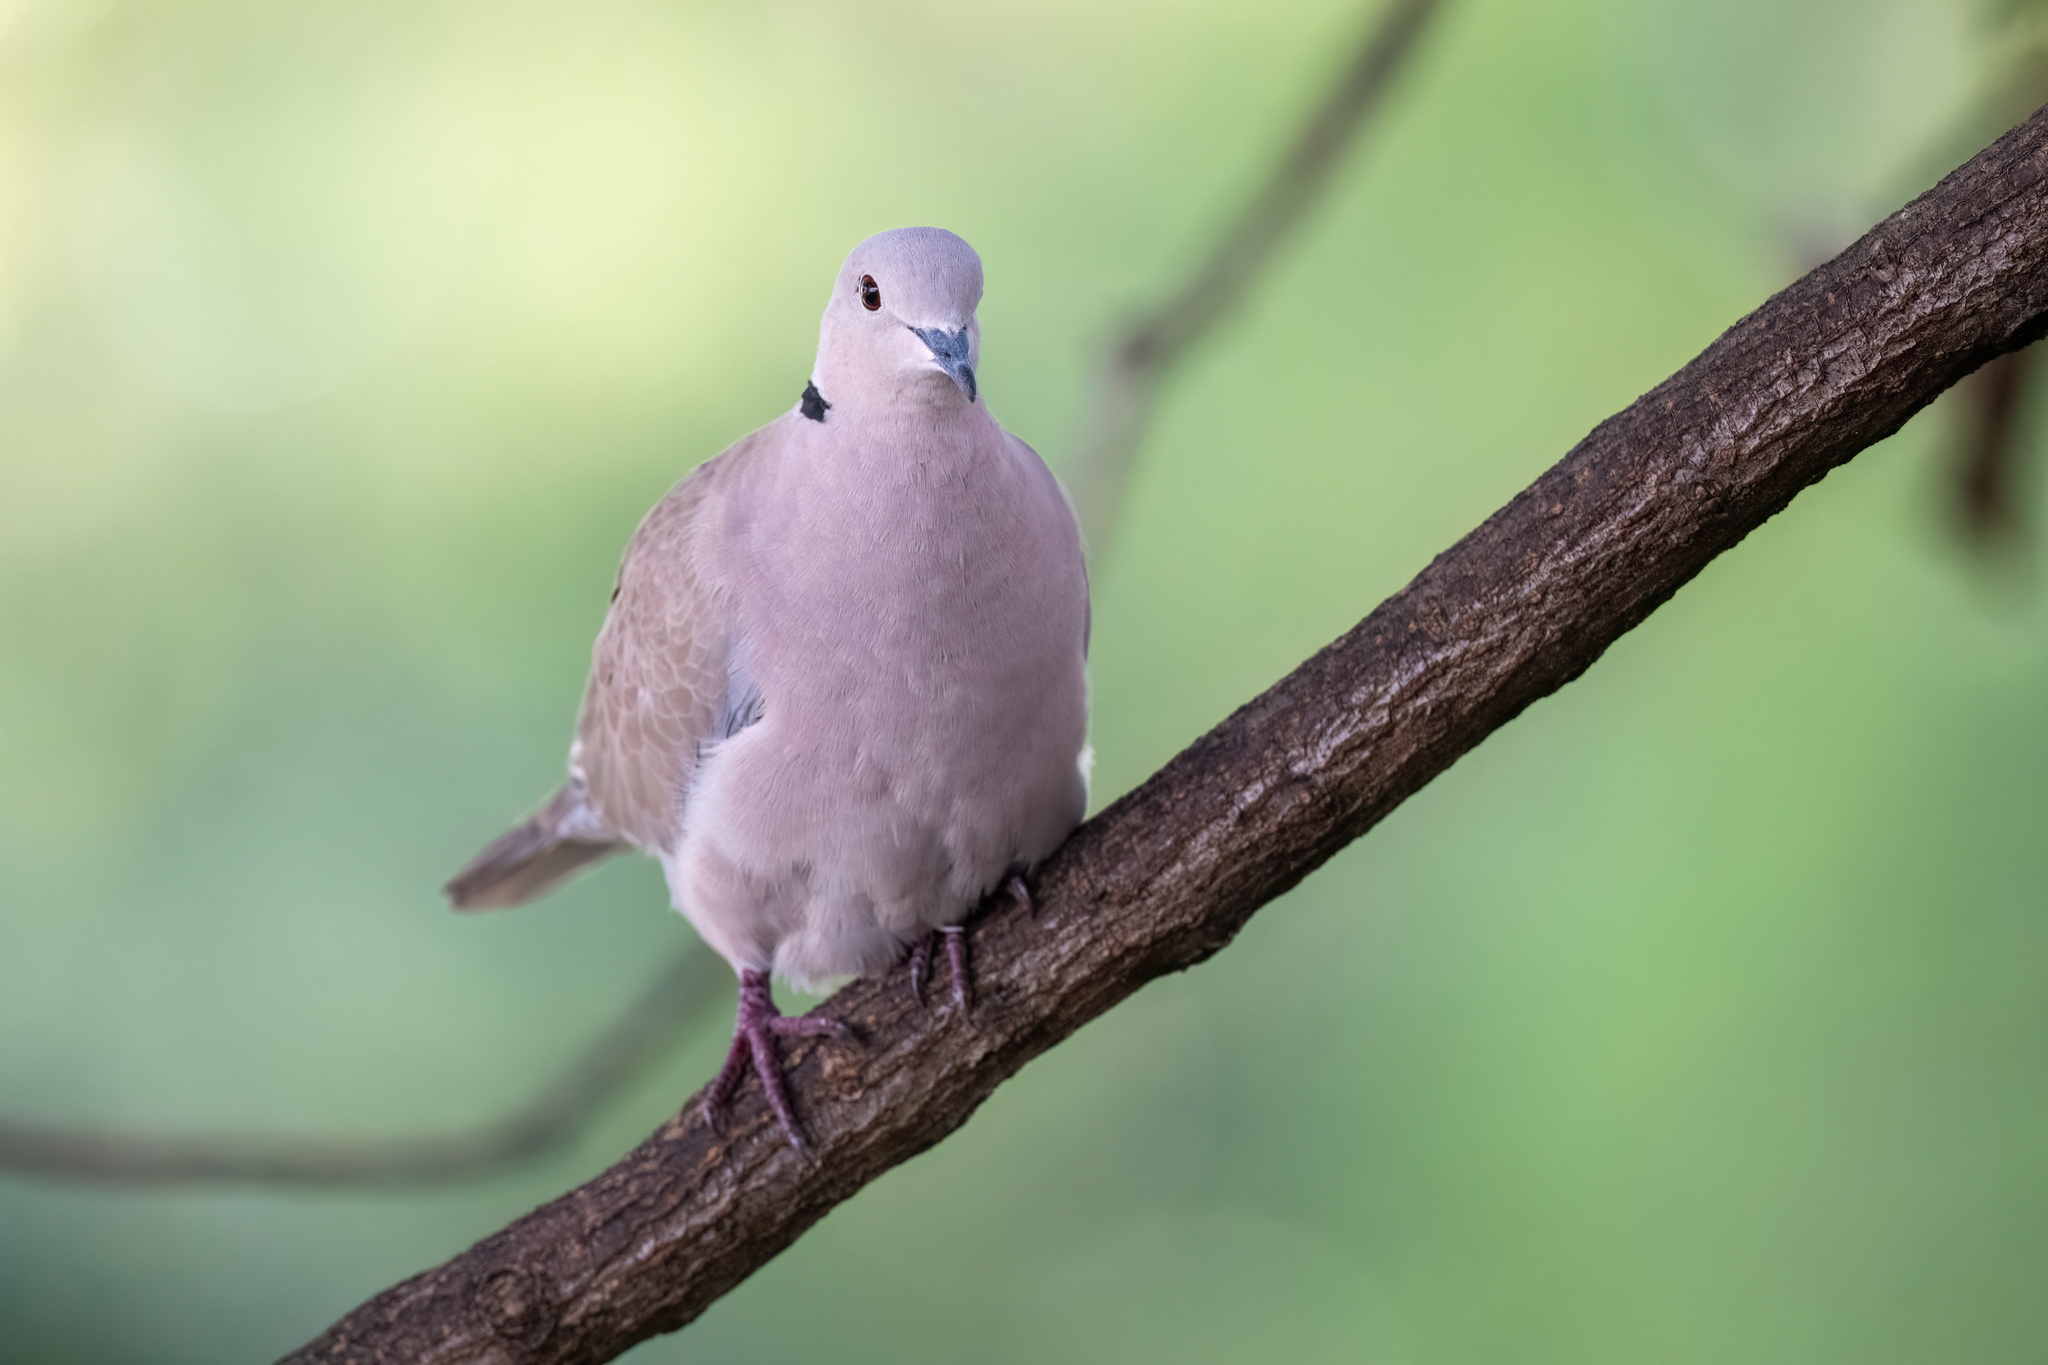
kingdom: Animalia
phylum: Chordata
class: Aves
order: Columbiformes
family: Columbidae
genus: Streptopelia
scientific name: Streptopelia roseogrisea
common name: African collared dove
